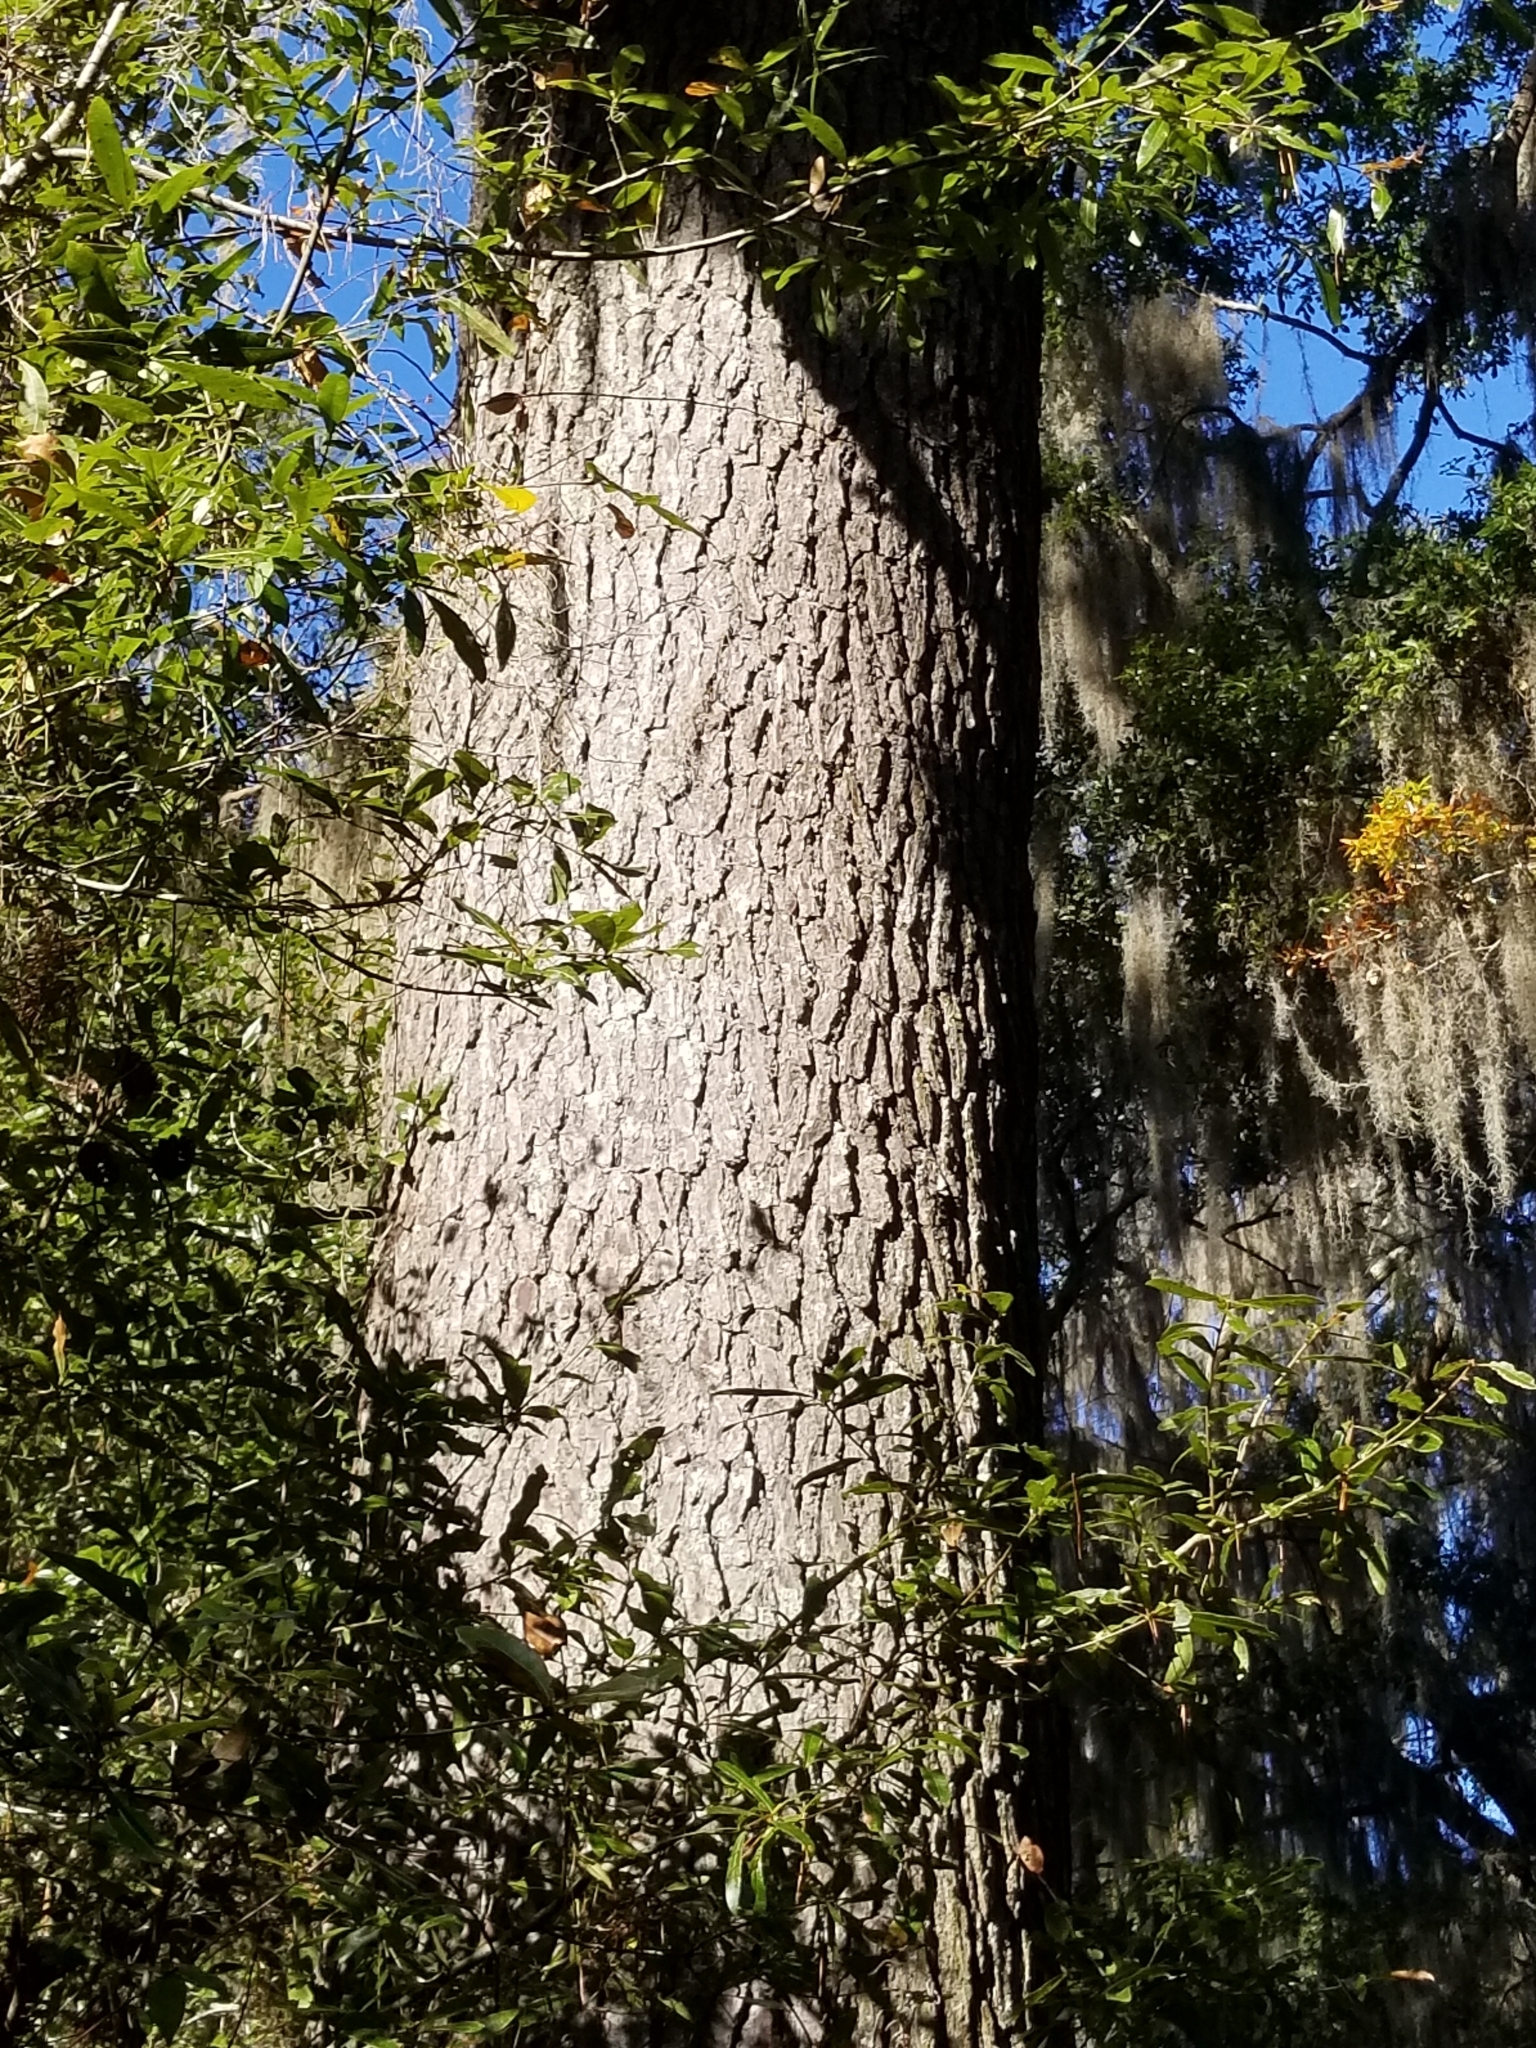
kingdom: Plantae
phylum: Tracheophyta
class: Pinopsida
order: Pinales
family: Pinaceae
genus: Pinus
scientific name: Pinus glabra
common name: Spruce pine
